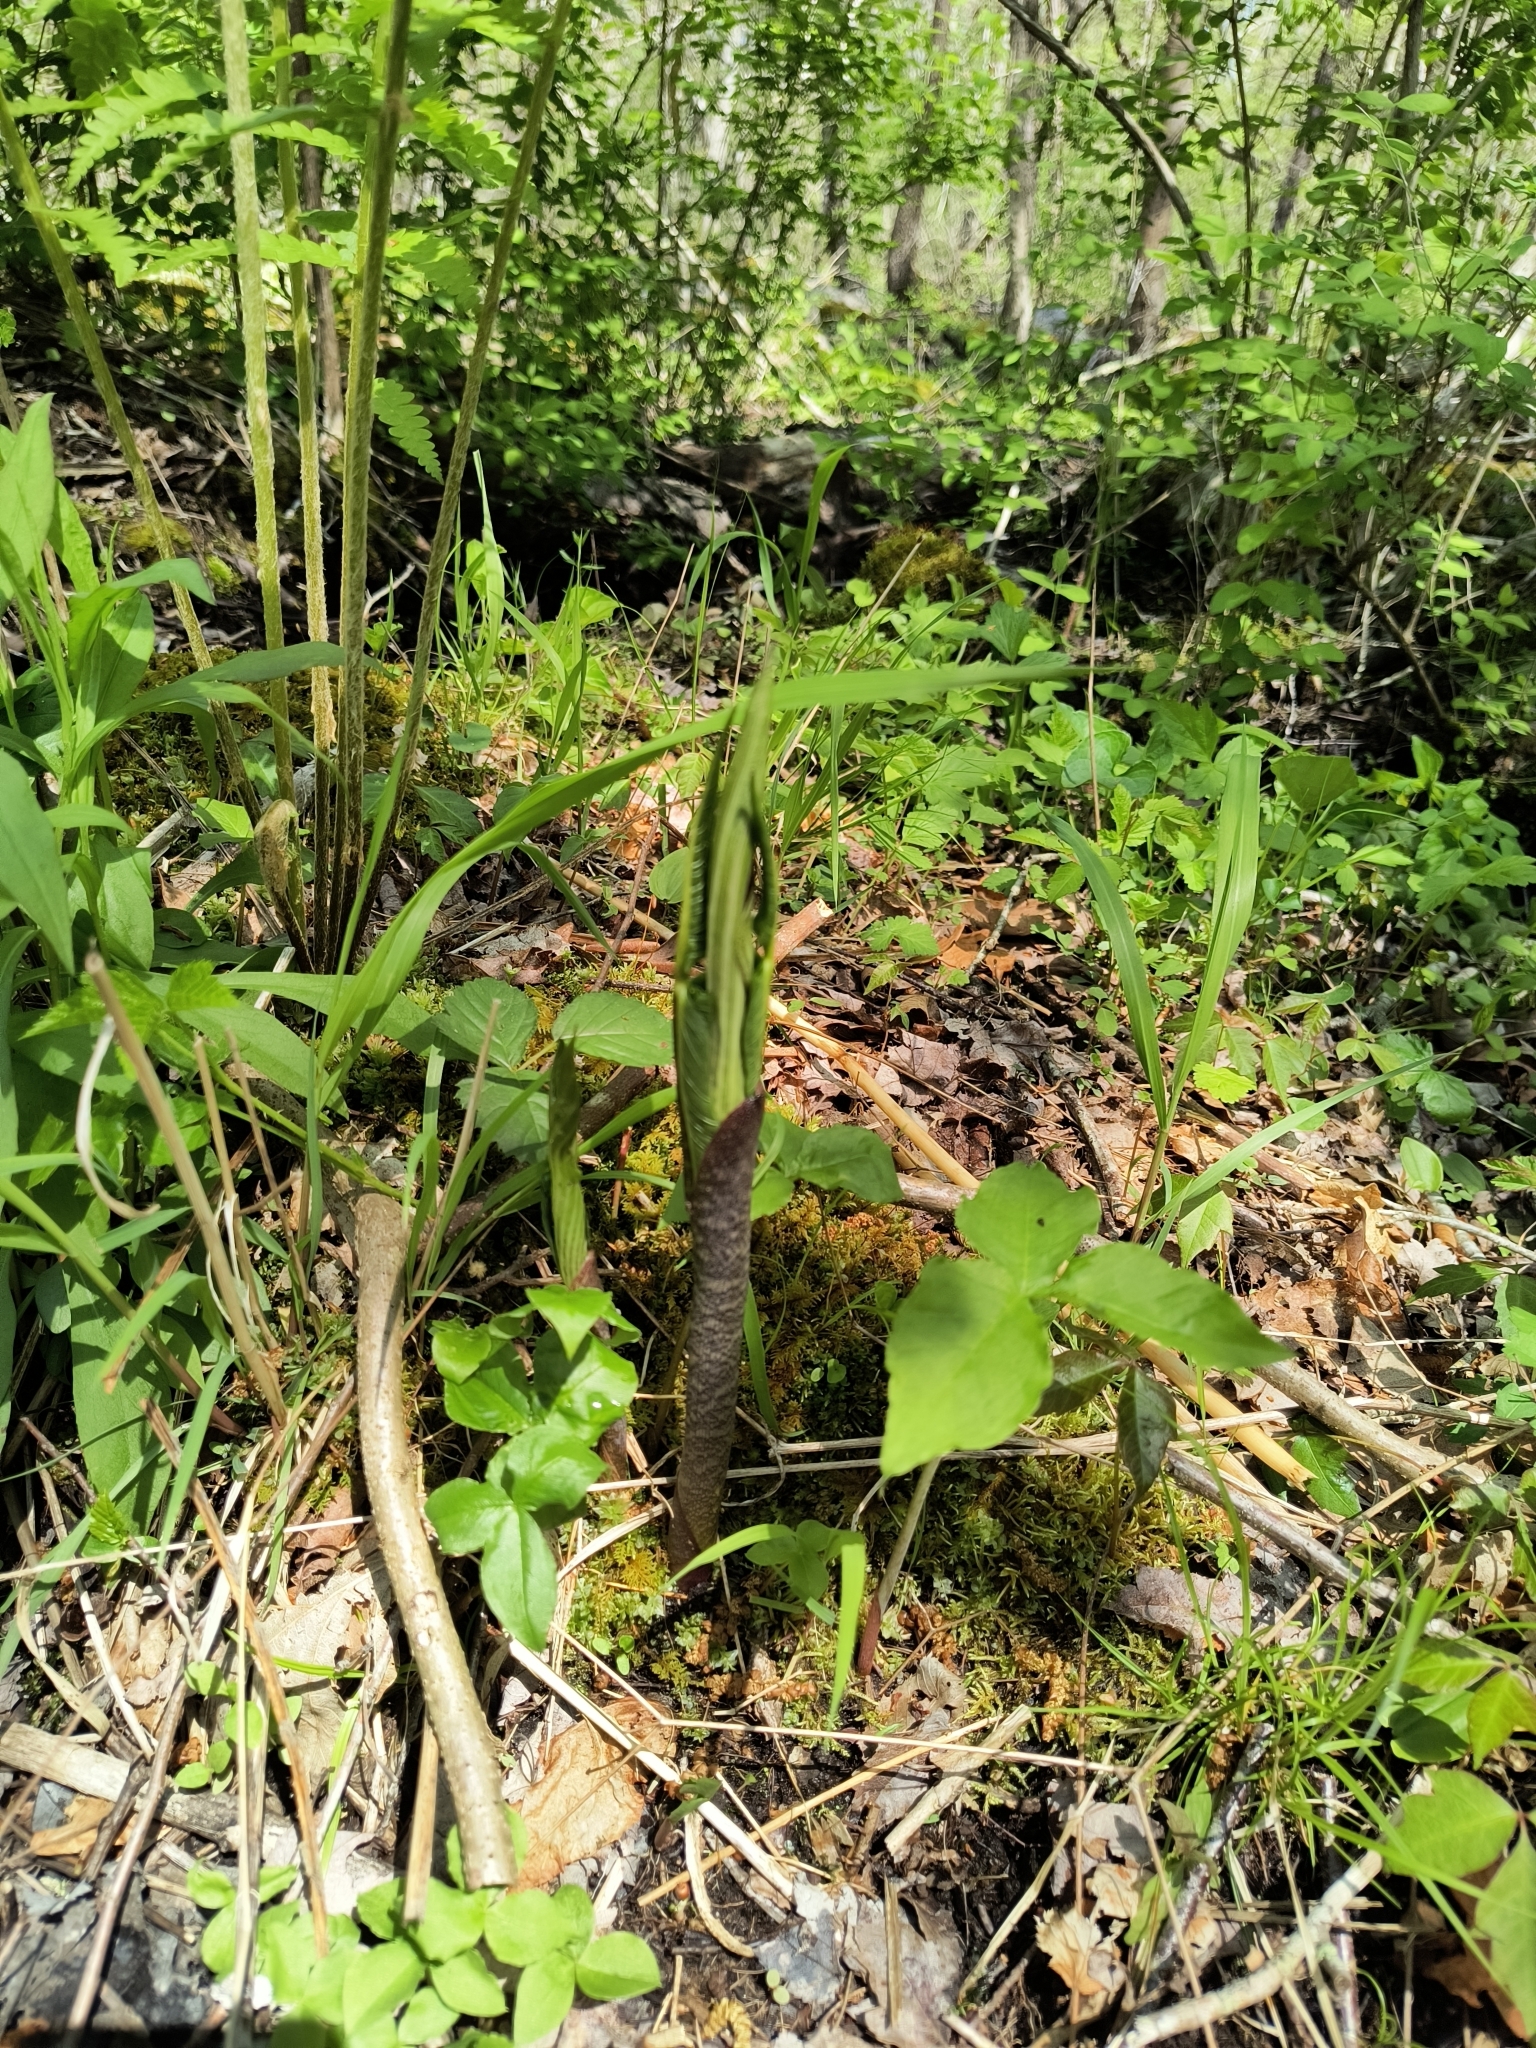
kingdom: Plantae
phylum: Tracheophyta
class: Liliopsida
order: Alismatales
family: Araceae
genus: Arisaema
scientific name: Arisaema triphyllum
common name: Jack-in-the-pulpit
